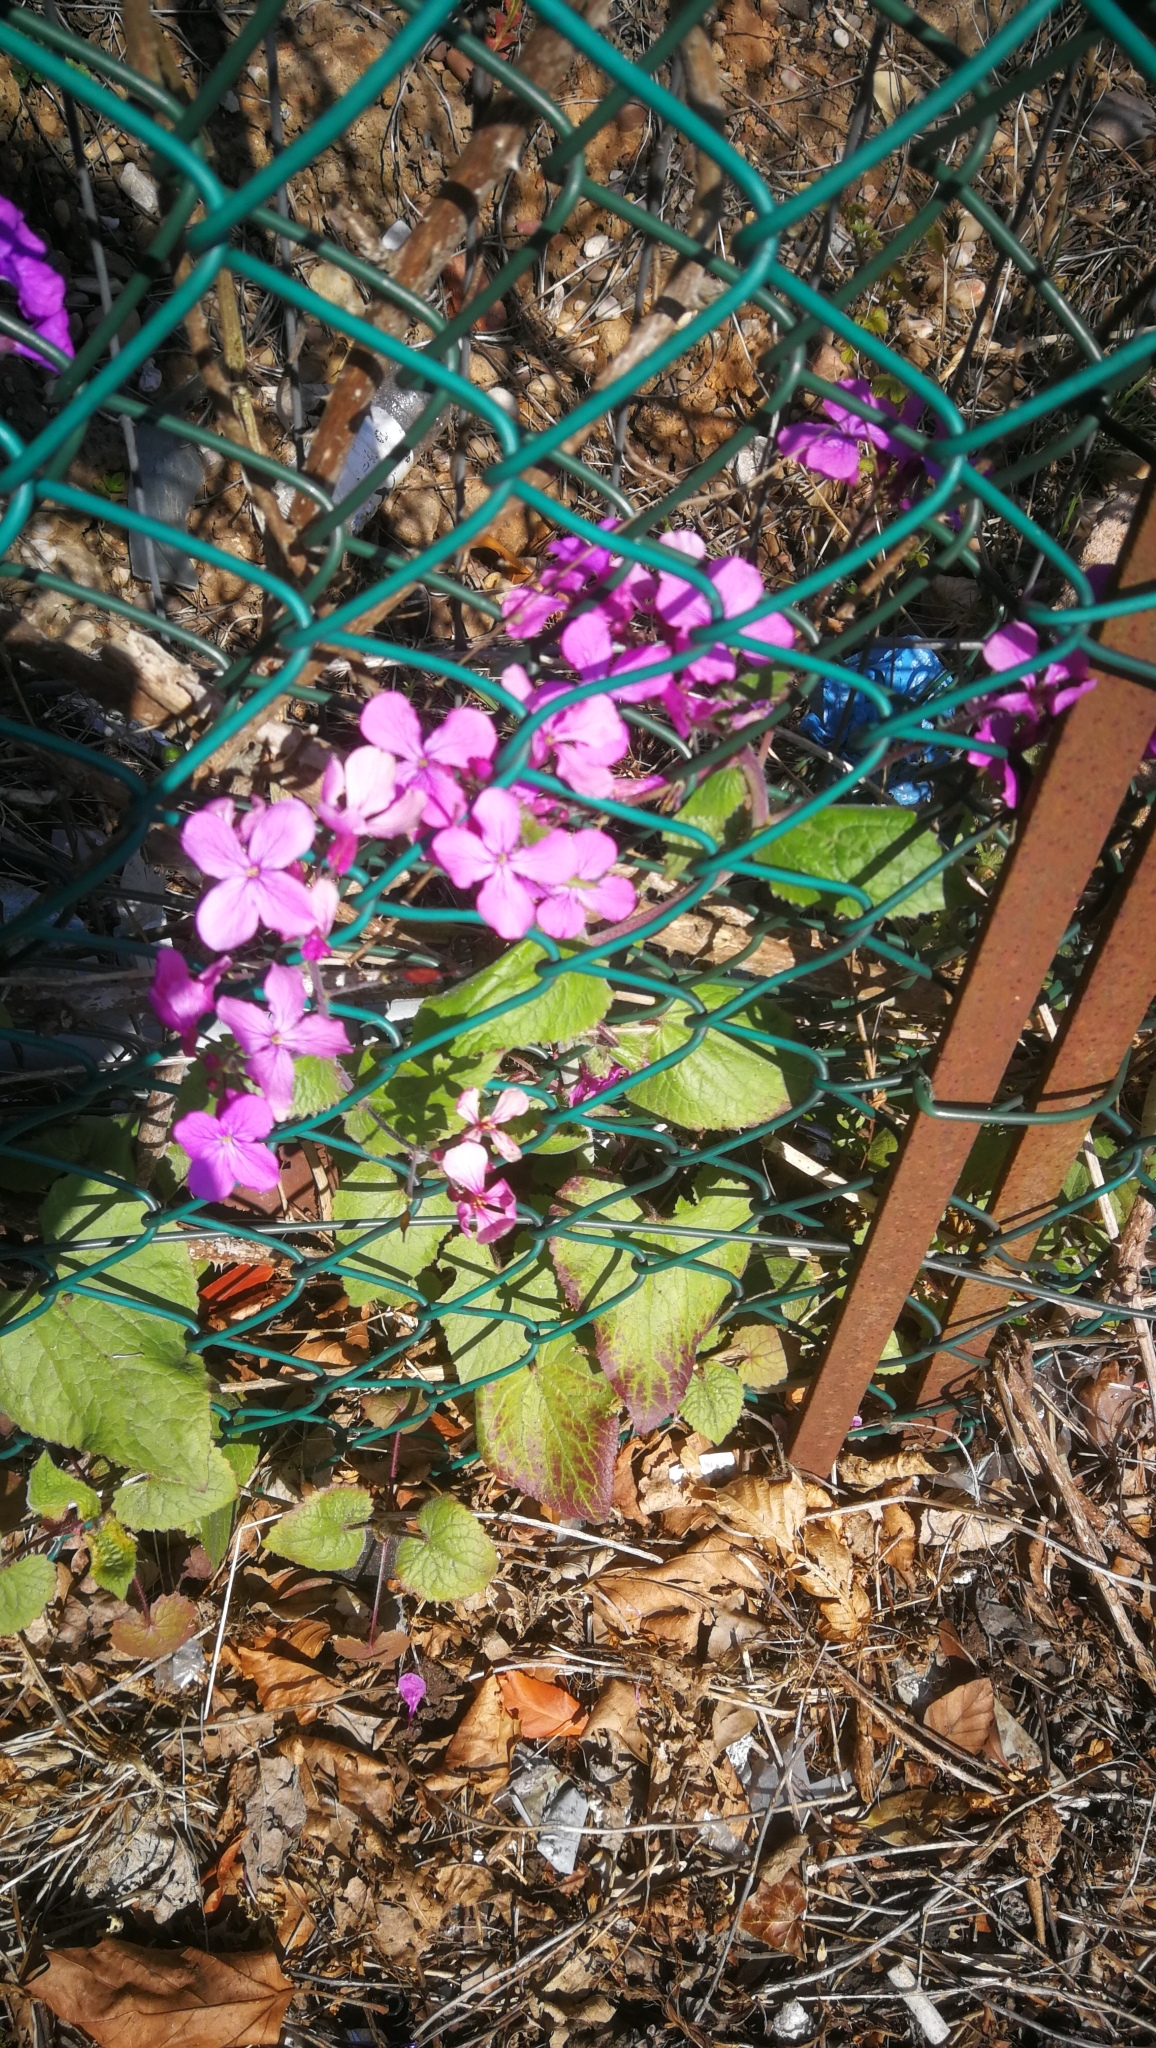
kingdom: Plantae
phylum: Tracheophyta
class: Magnoliopsida
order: Brassicales
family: Brassicaceae
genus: Lunaria
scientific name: Lunaria annua
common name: Honesty
